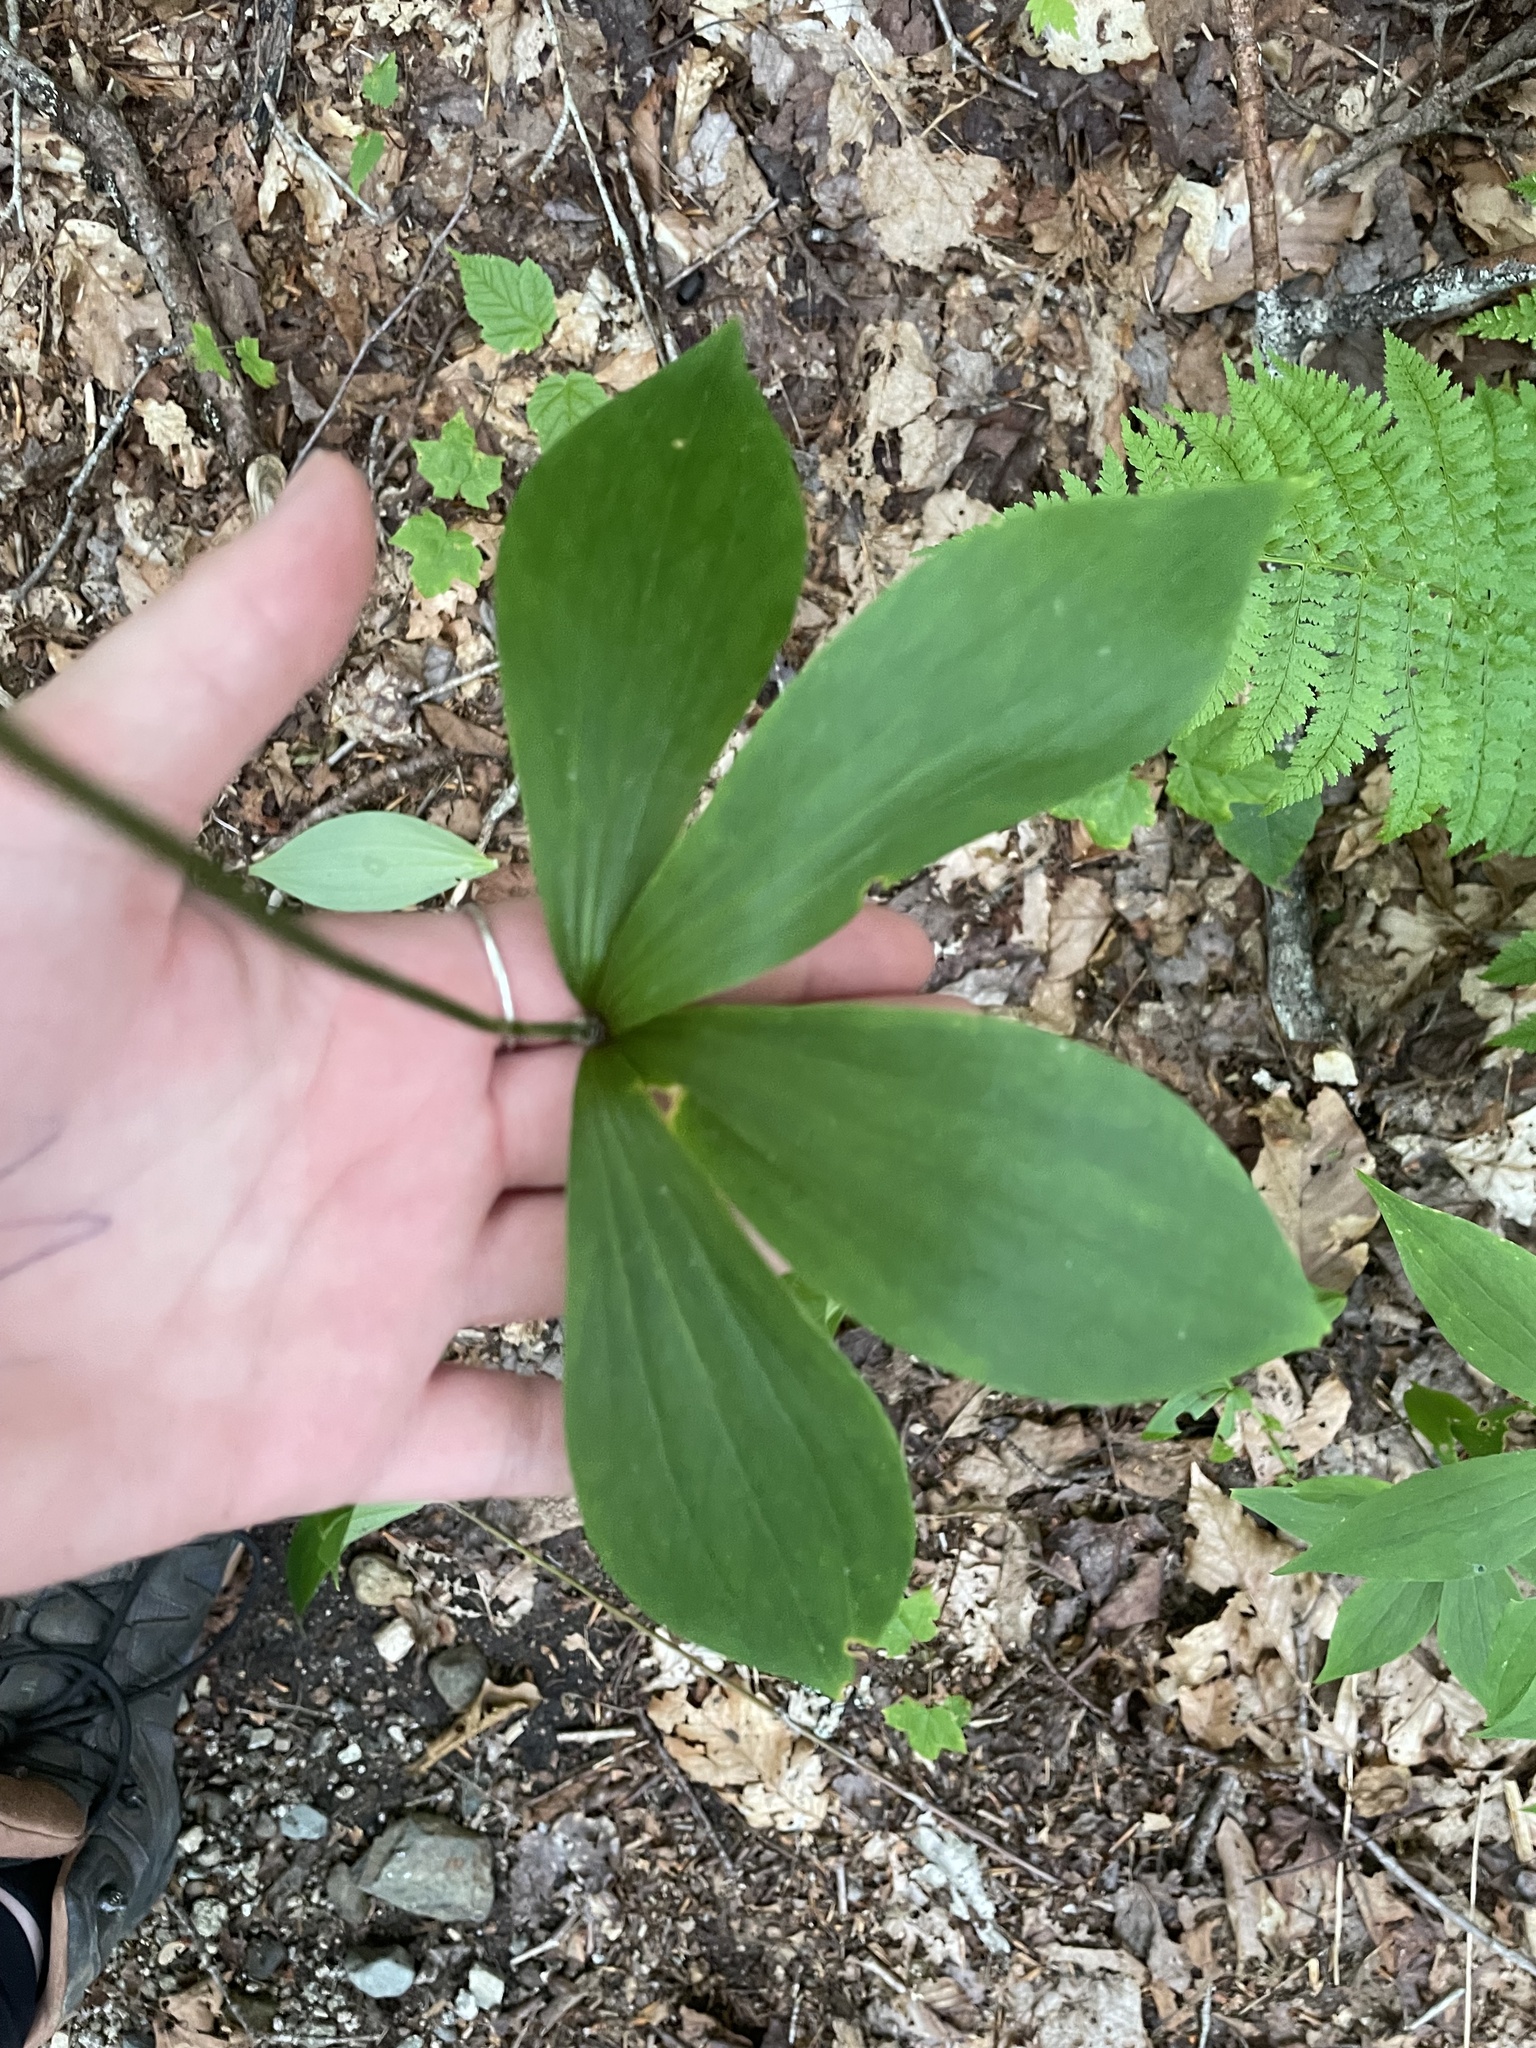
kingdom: Plantae
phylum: Tracheophyta
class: Liliopsida
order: Liliales
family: Liliaceae
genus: Medeola
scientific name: Medeola virginiana
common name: Indian cucumber-root
